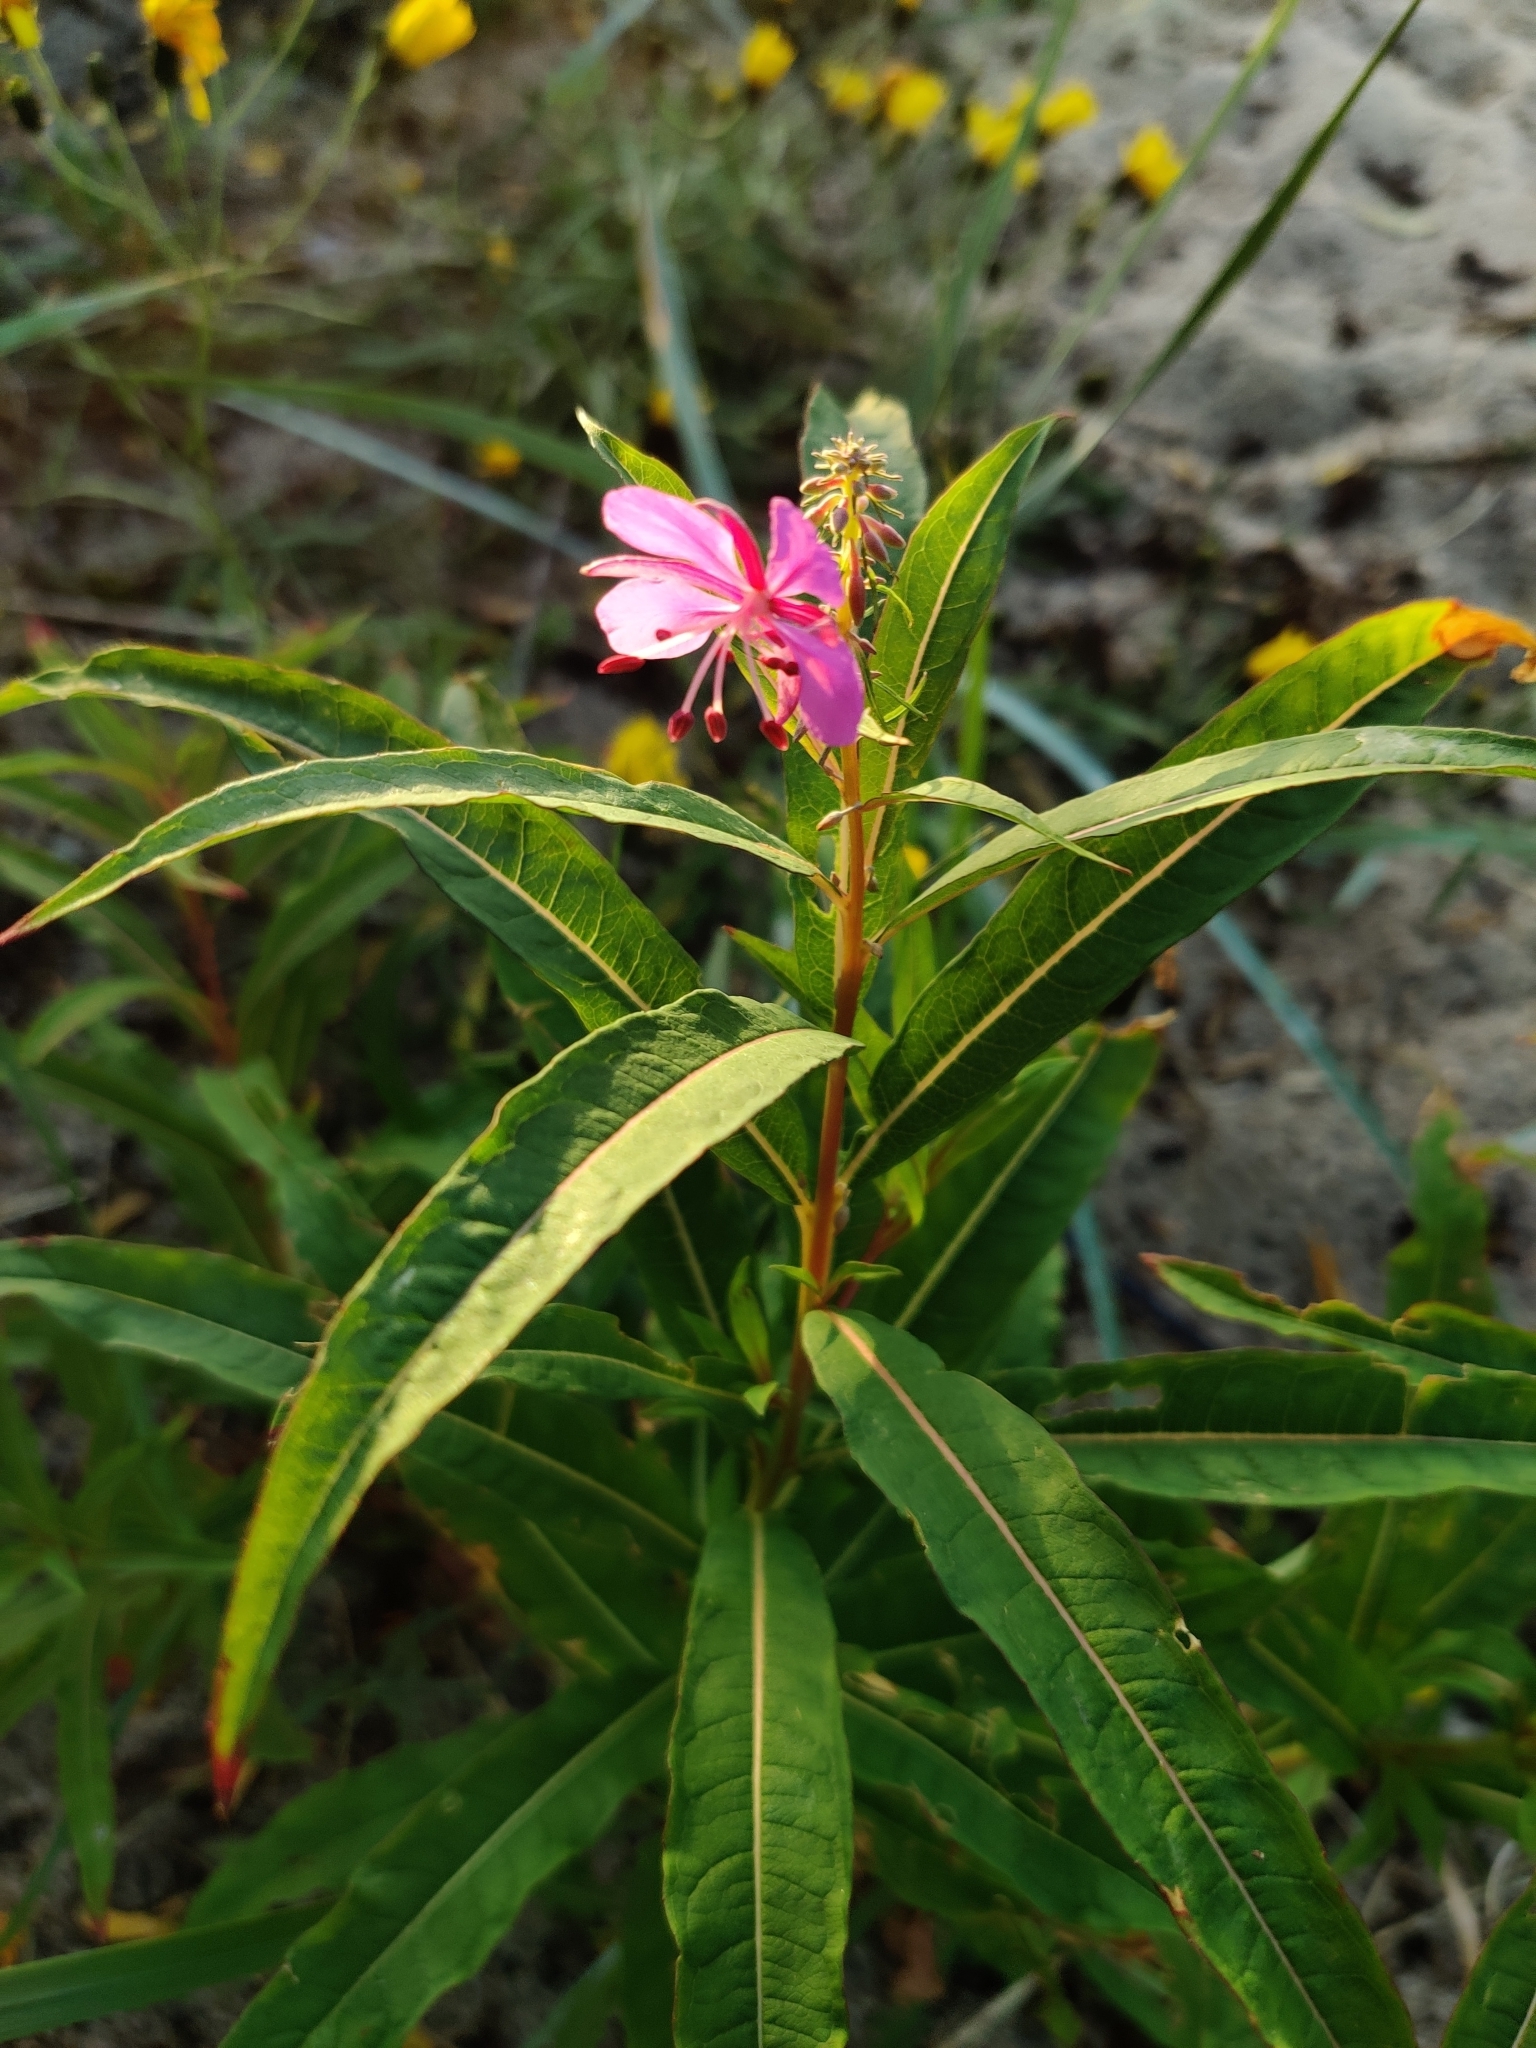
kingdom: Plantae
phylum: Tracheophyta
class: Magnoliopsida
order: Myrtales
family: Onagraceae
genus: Chamaenerion
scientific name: Chamaenerion angustifolium
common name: Fireweed
